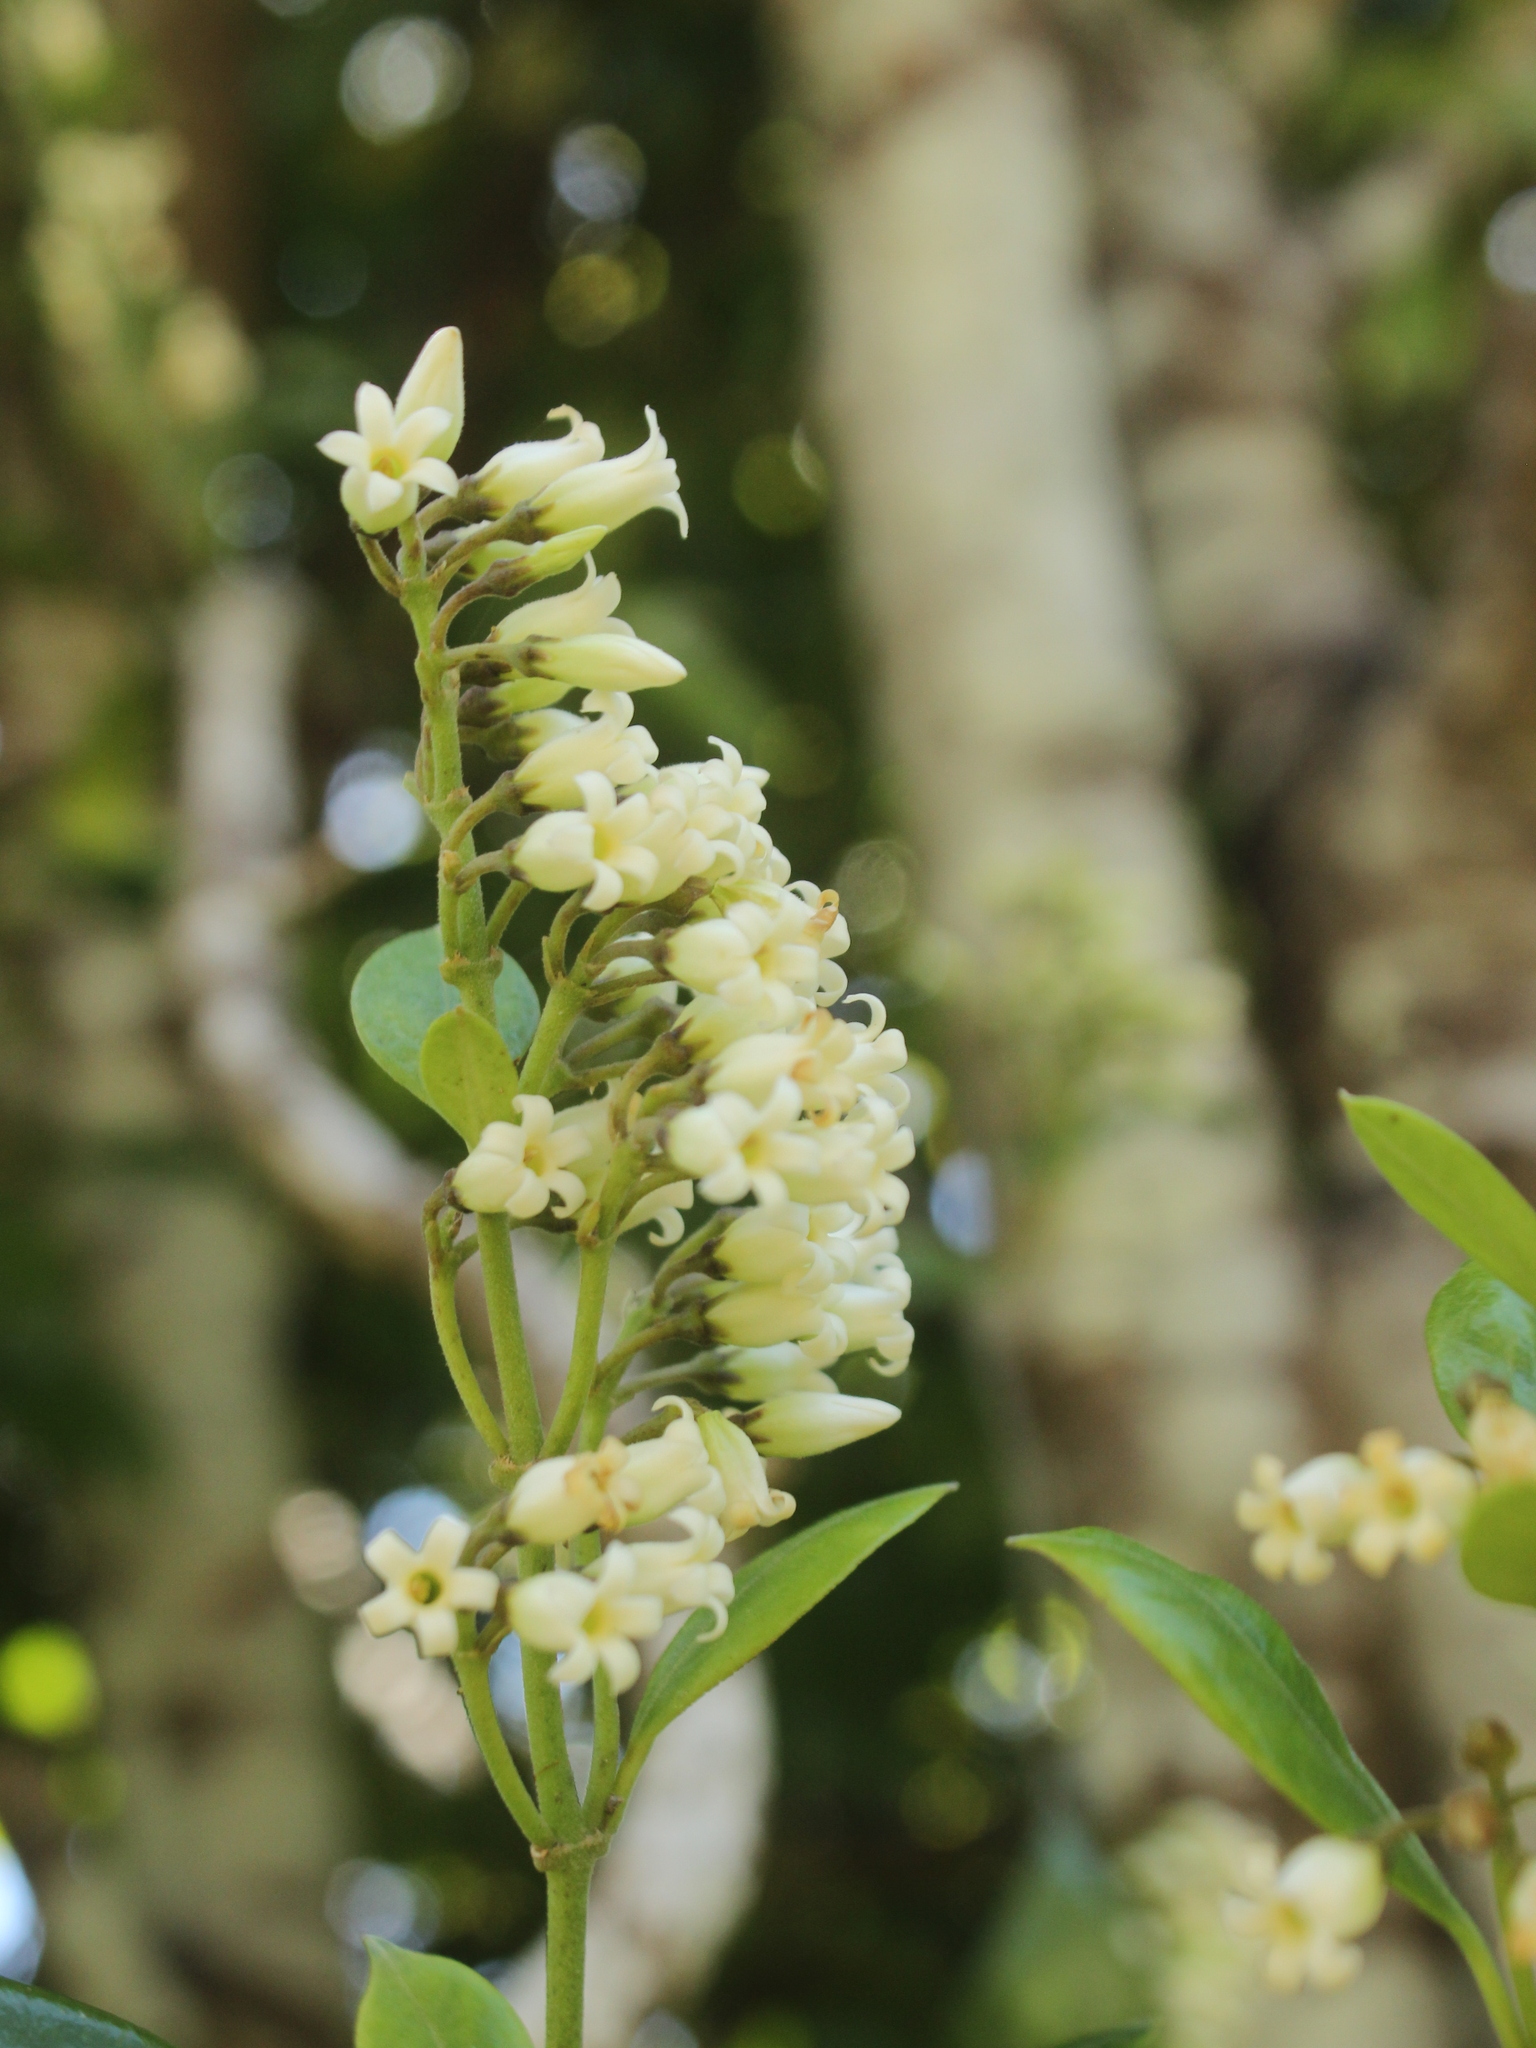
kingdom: Plantae
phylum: Tracheophyta
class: Magnoliopsida
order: Gentianales
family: Apocynaceae
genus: Parsonsia
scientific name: Parsonsia heterophylla
